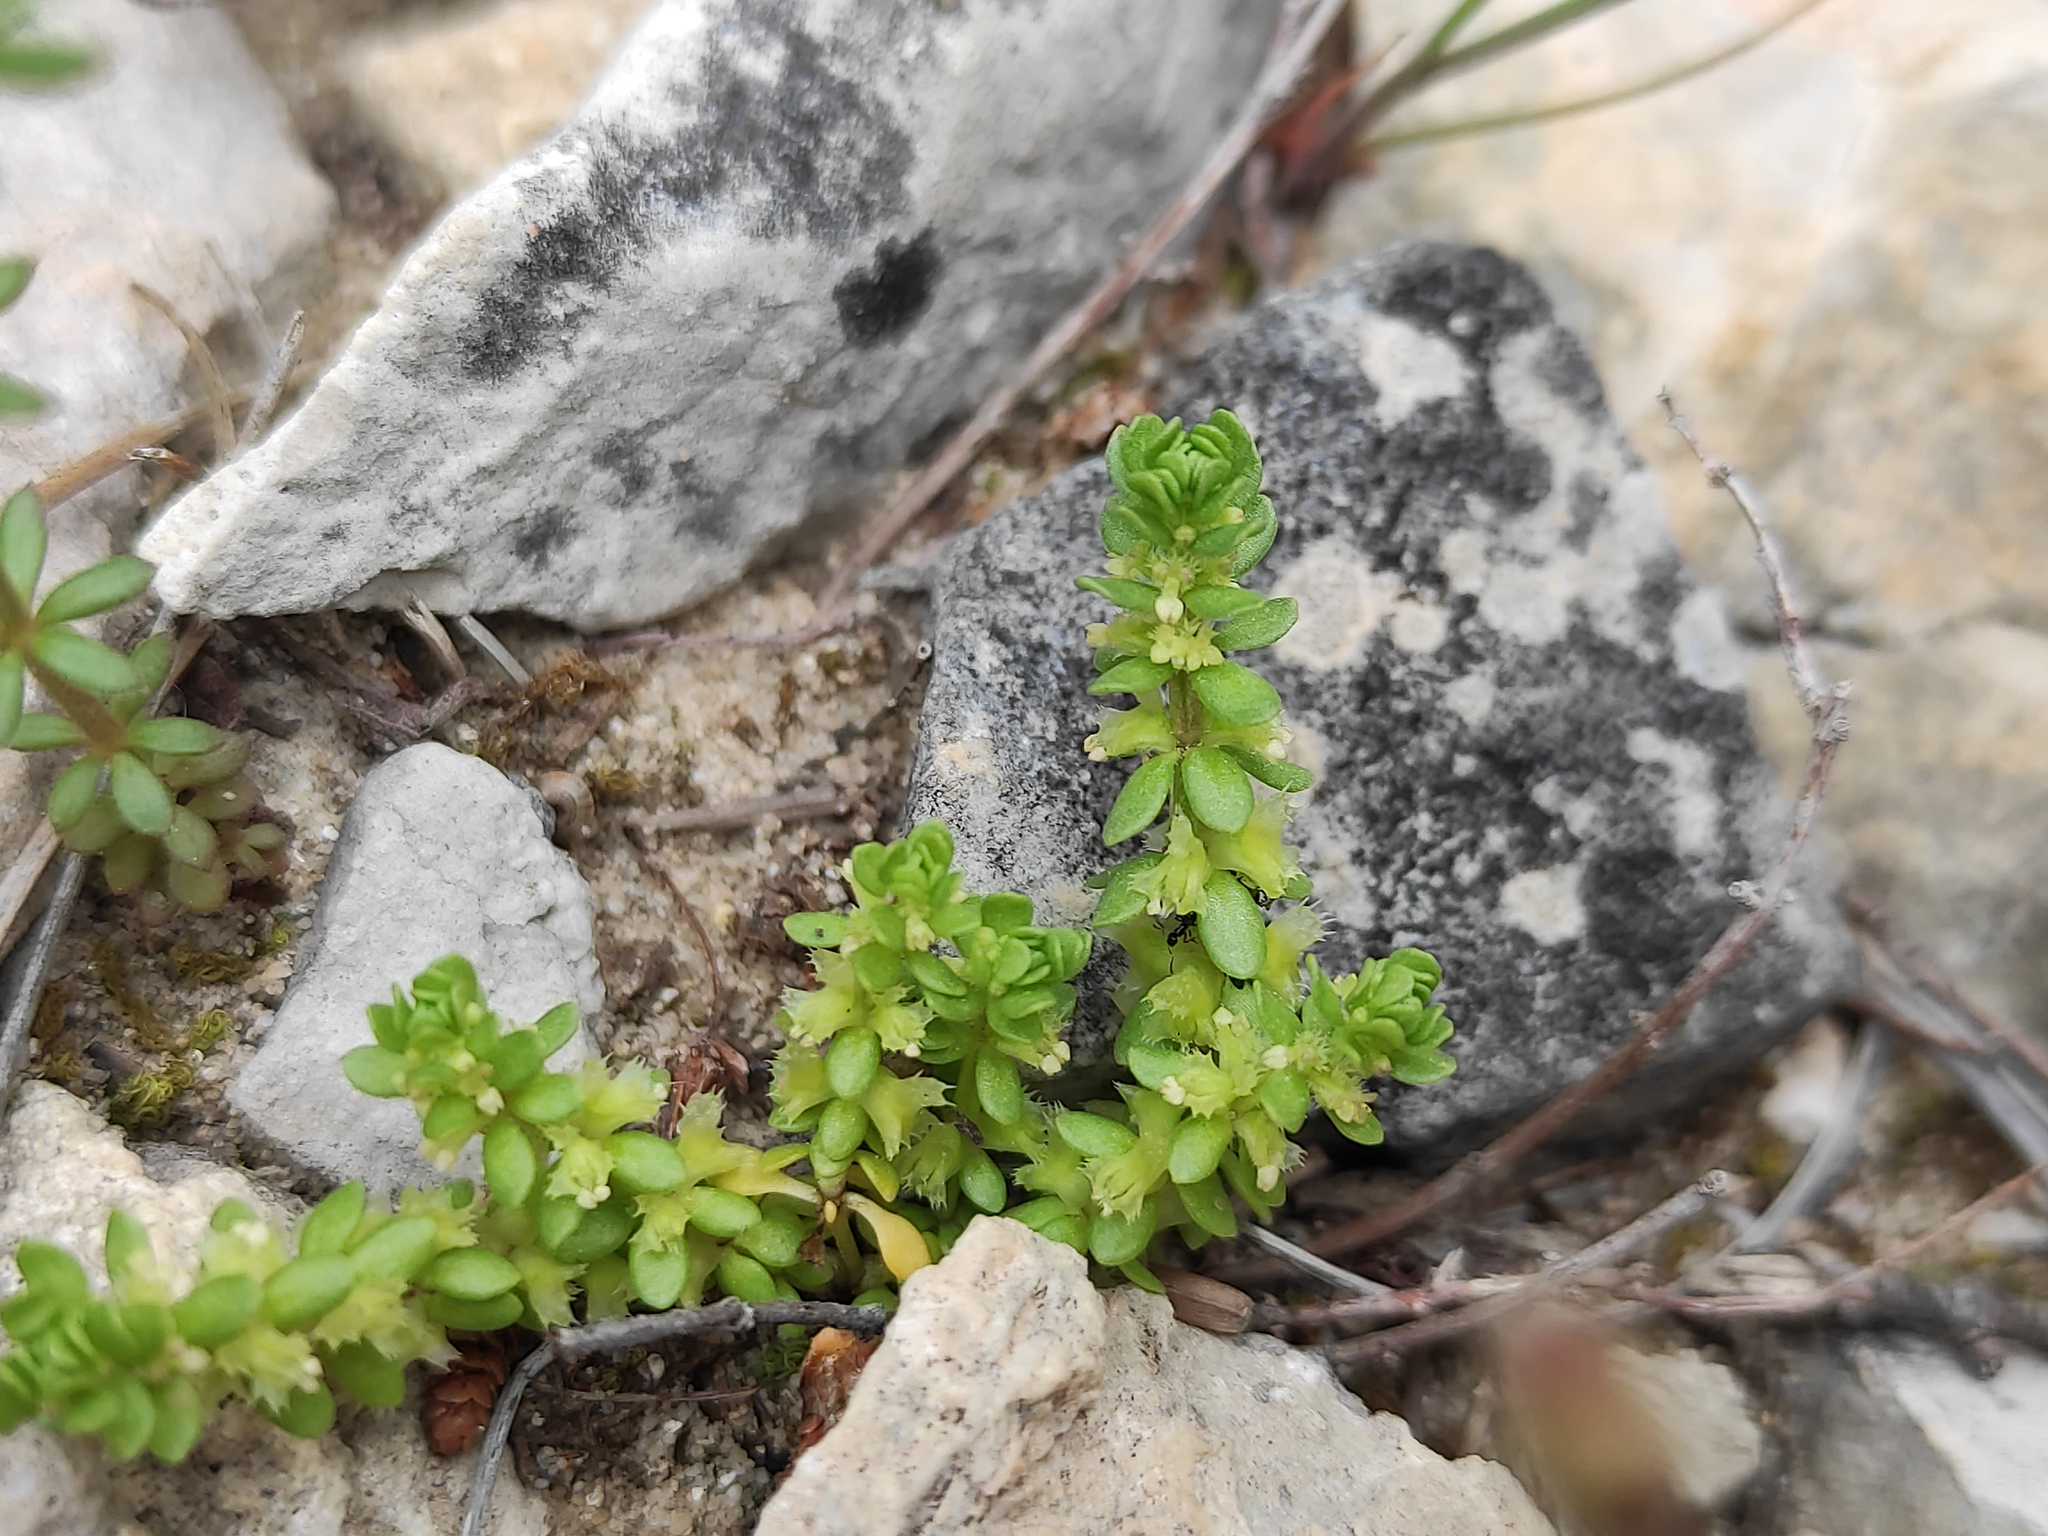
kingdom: Plantae
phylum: Tracheophyta
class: Magnoliopsida
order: Gentianales
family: Rubiaceae
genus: Valantia
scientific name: Valantia muralis
